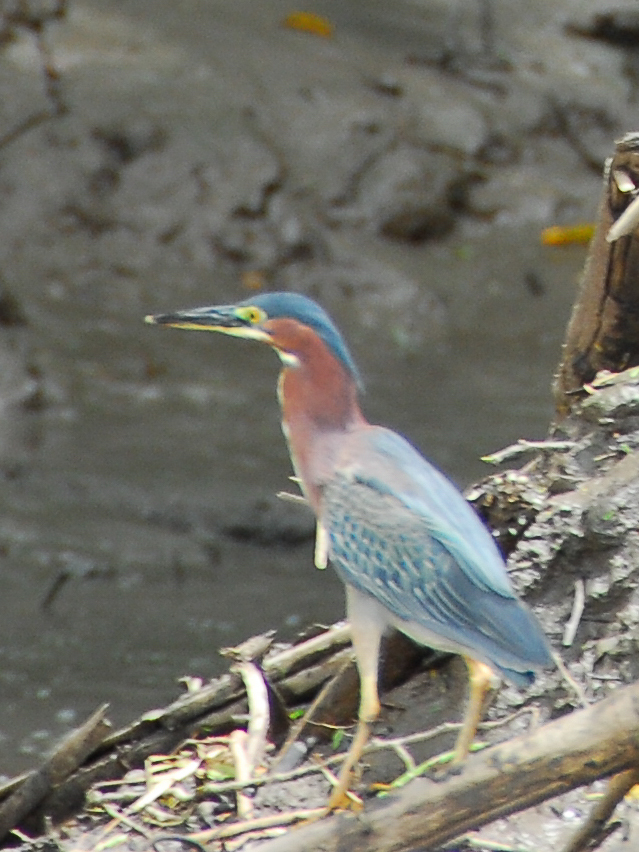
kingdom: Animalia
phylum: Chordata
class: Aves
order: Pelecaniformes
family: Ardeidae
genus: Butorides
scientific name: Butorides virescens
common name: Green heron
